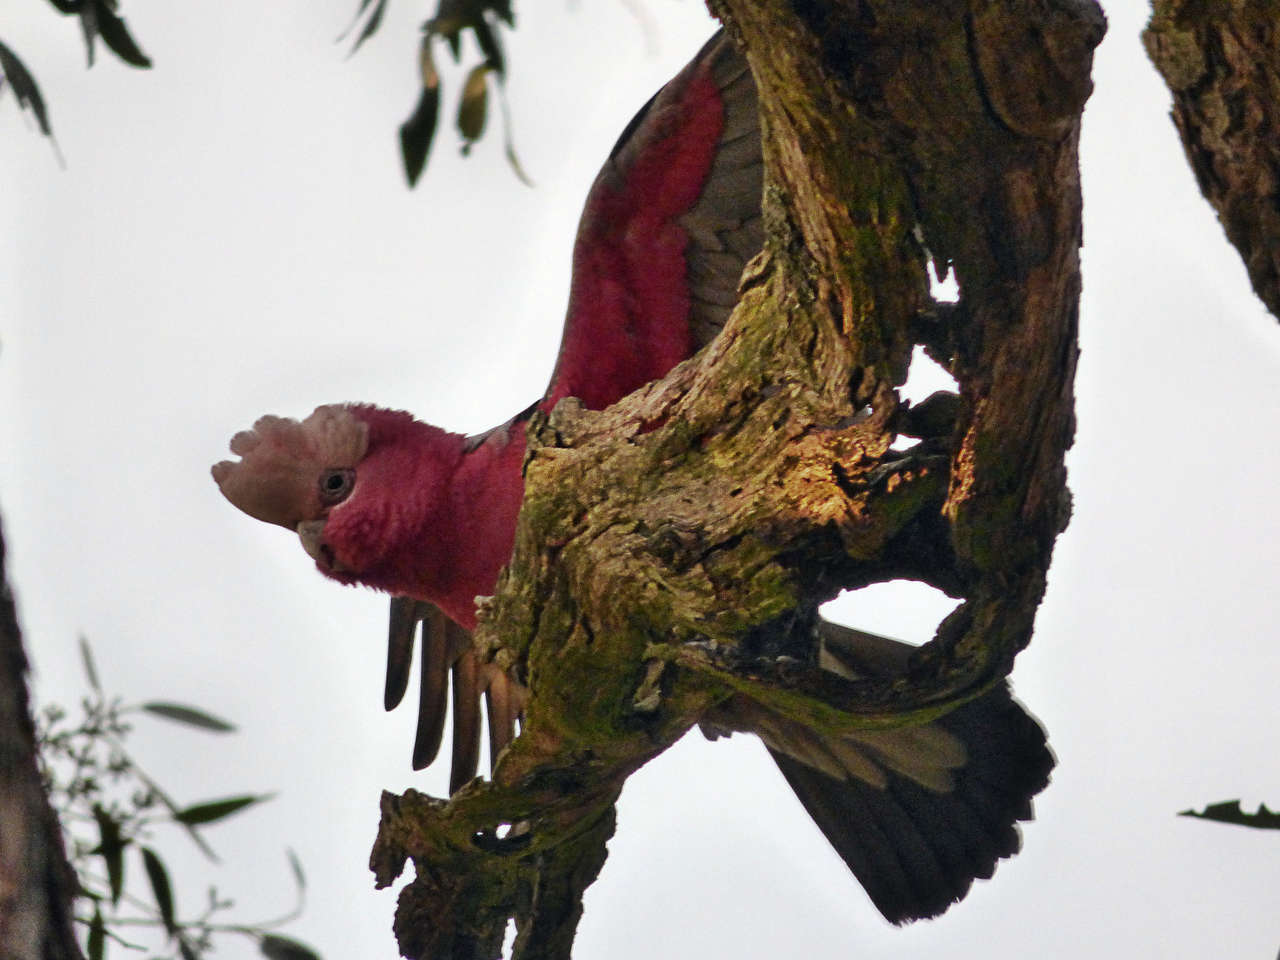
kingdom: Animalia
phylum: Chordata
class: Aves
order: Psittaciformes
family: Psittacidae
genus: Eolophus
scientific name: Eolophus roseicapilla
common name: Galah
